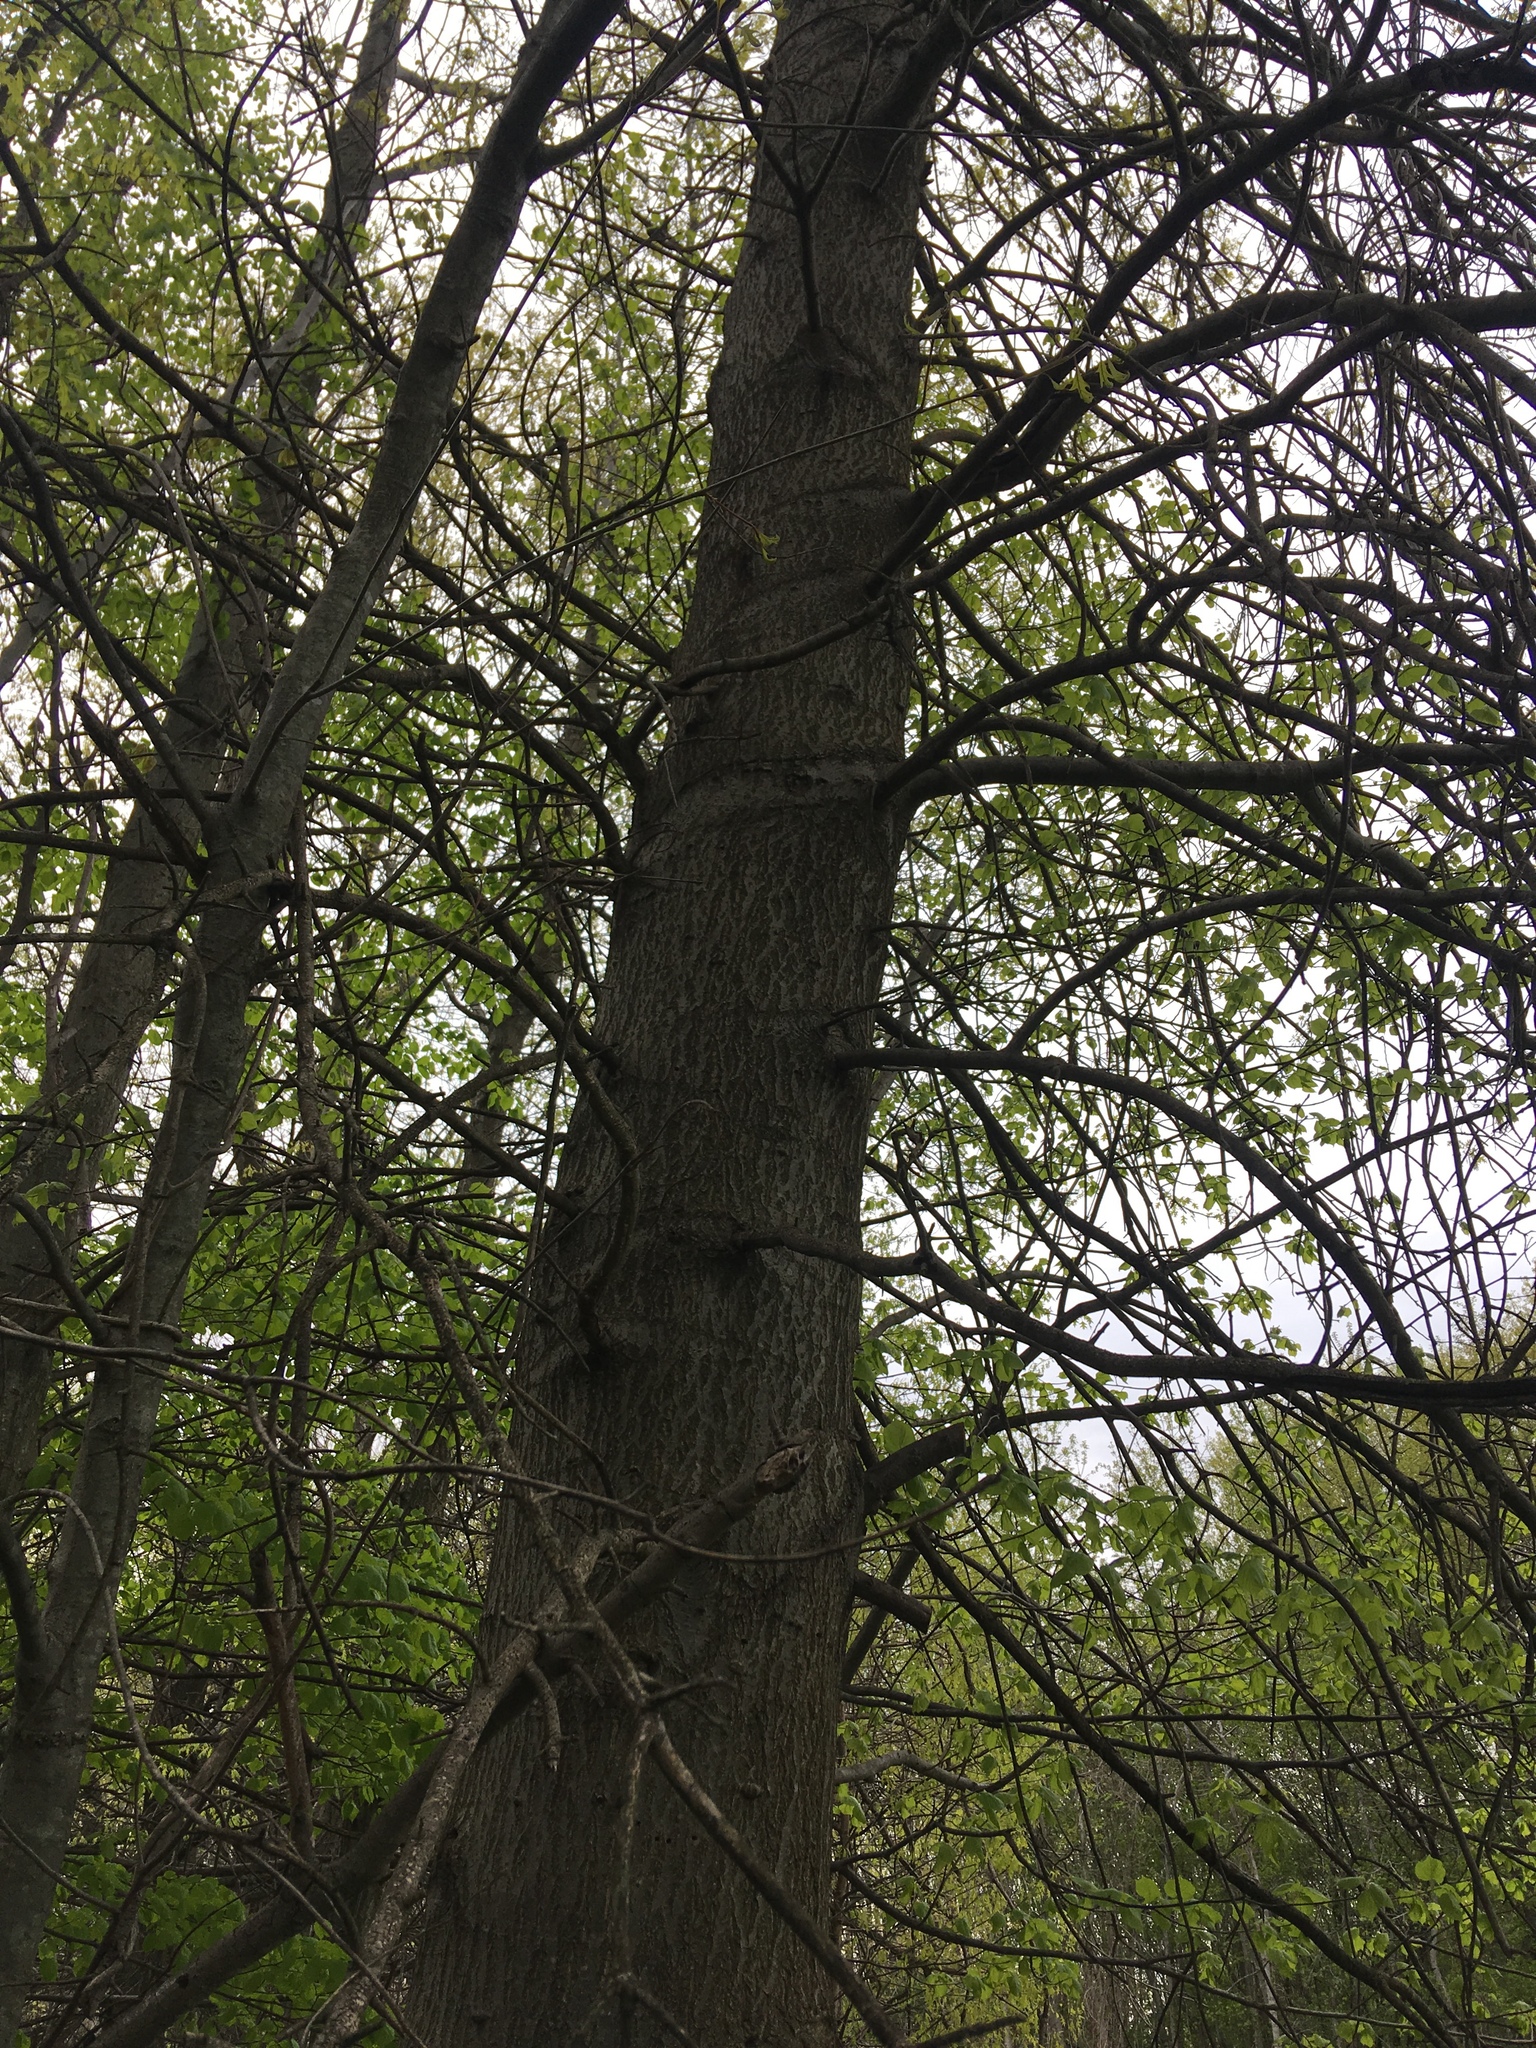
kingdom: Plantae
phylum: Tracheophyta
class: Magnoliopsida
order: Fagales
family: Fagaceae
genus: Quercus
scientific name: Quercus palustris
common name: Pin oak
